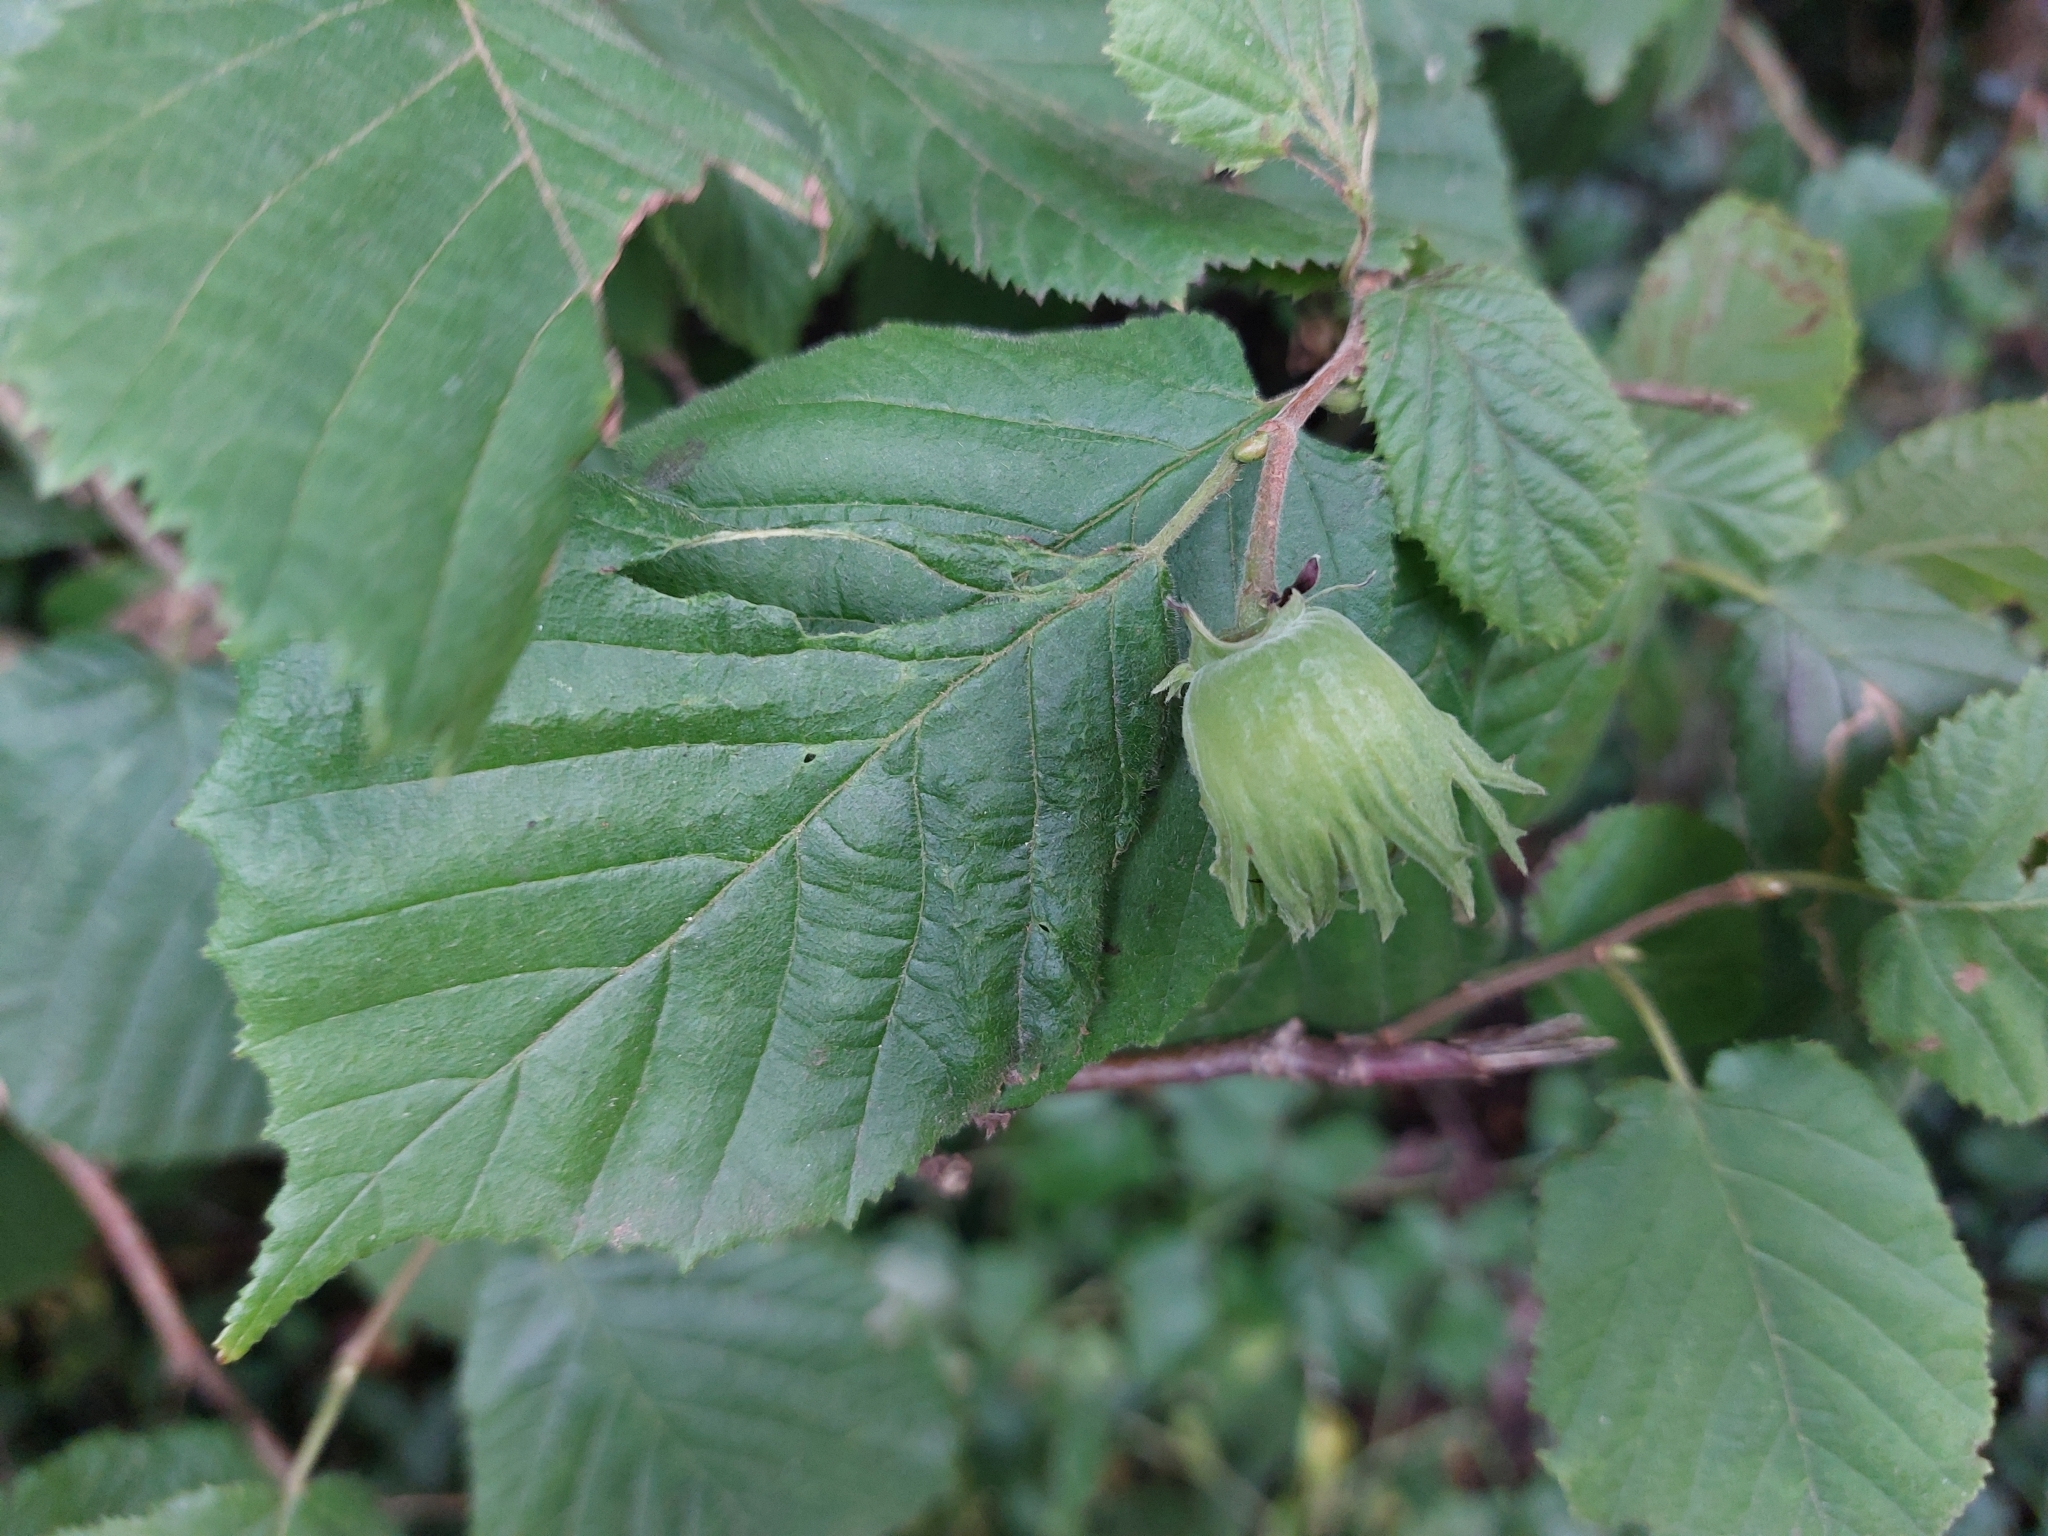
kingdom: Plantae
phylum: Tracheophyta
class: Magnoliopsida
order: Fagales
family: Betulaceae
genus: Corylus
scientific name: Corylus avellana
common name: European hazel
